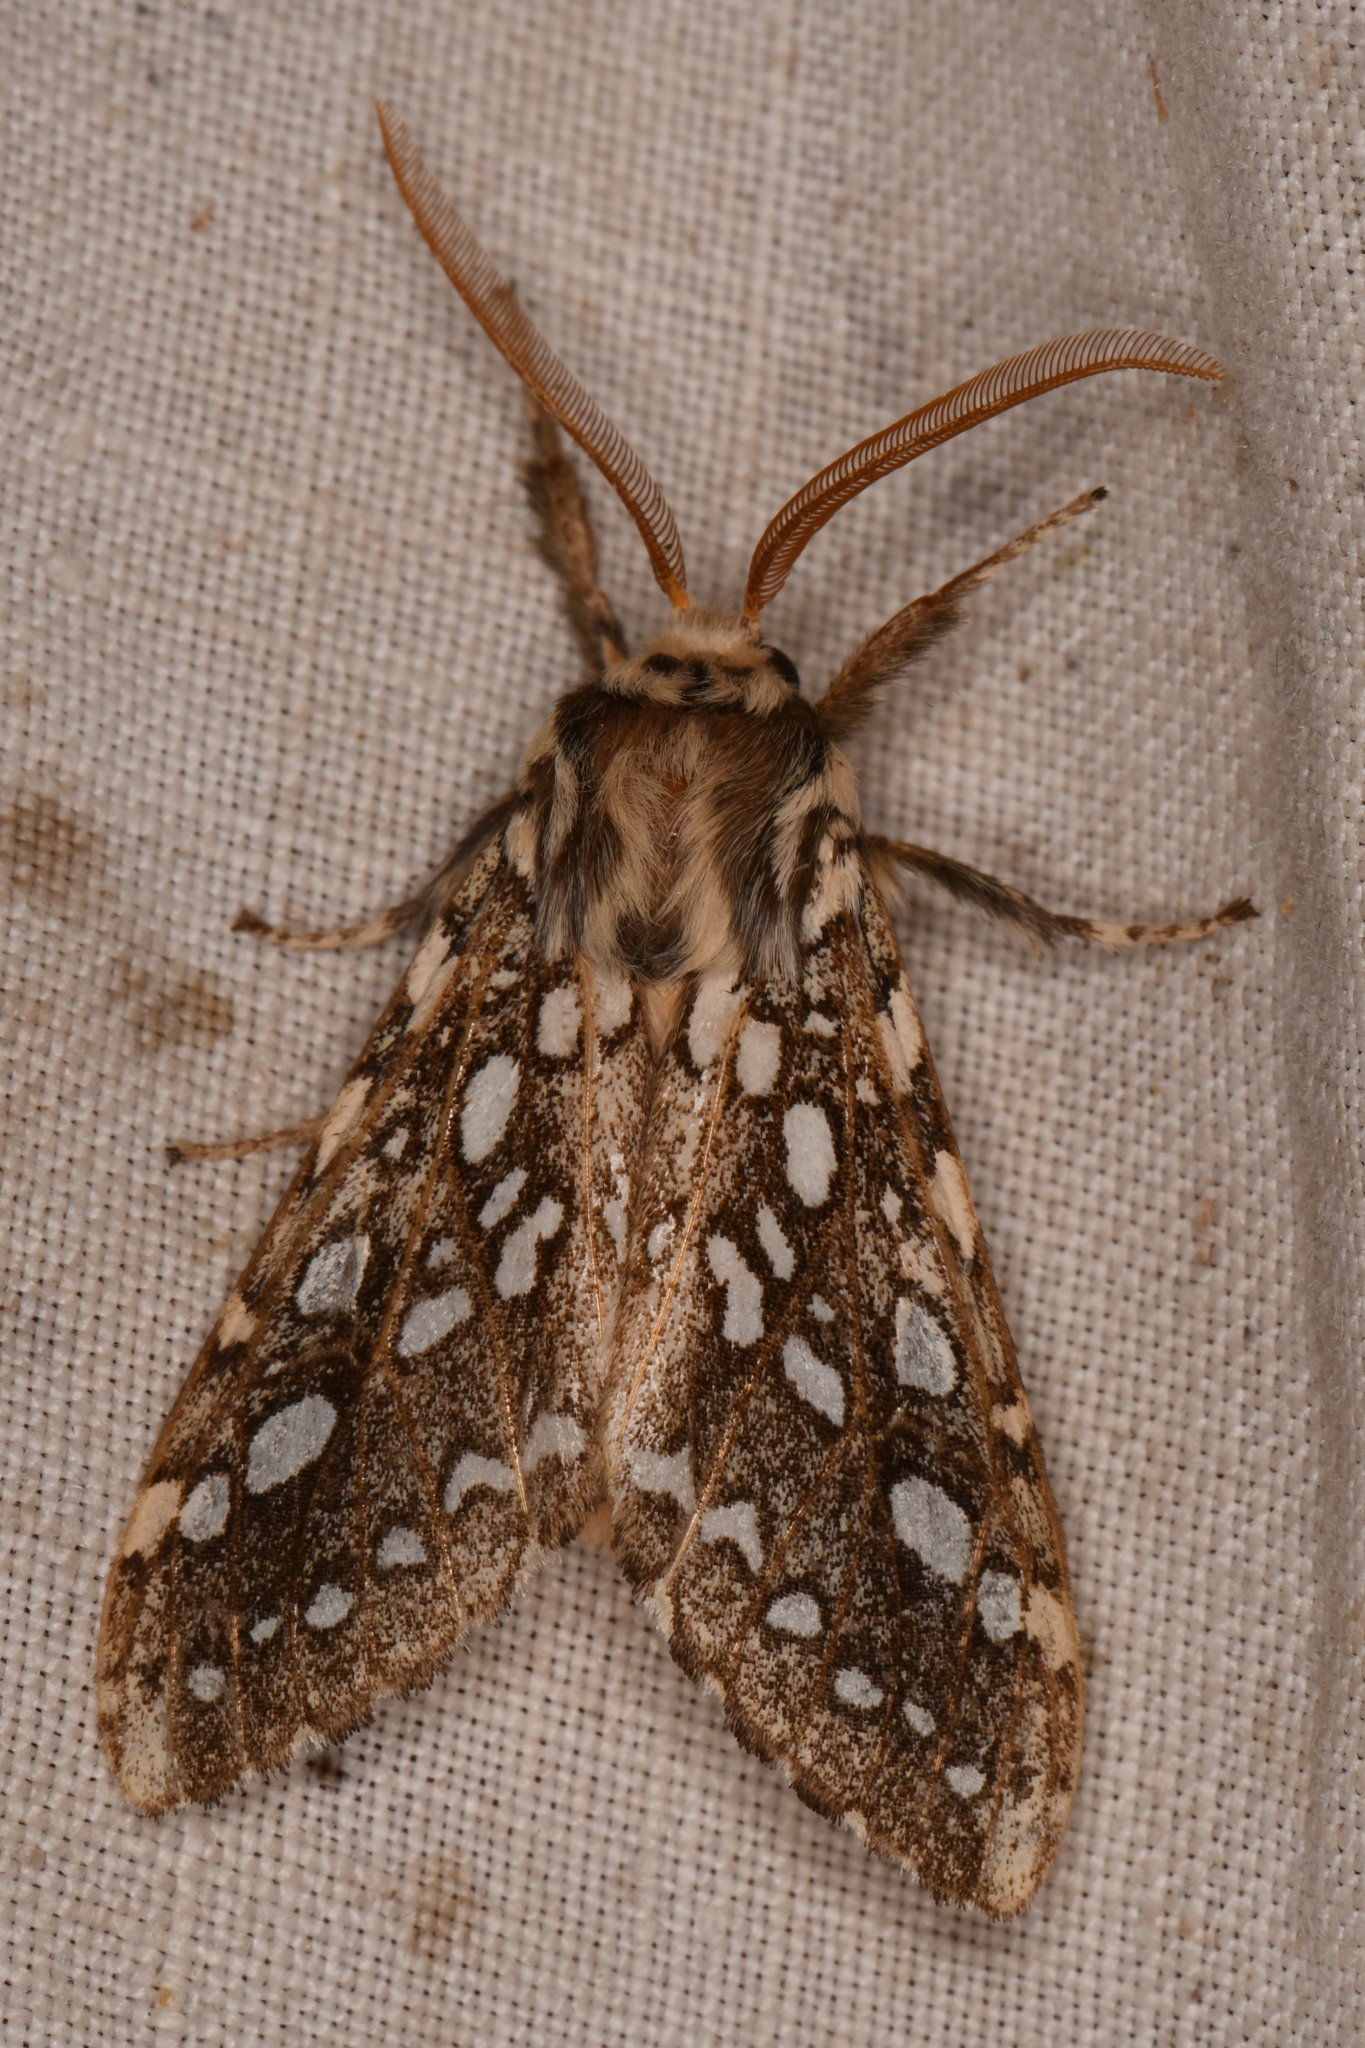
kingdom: Animalia
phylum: Arthropoda
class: Insecta
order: Lepidoptera
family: Erebidae
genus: Lophocampa
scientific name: Lophocampa argentata
